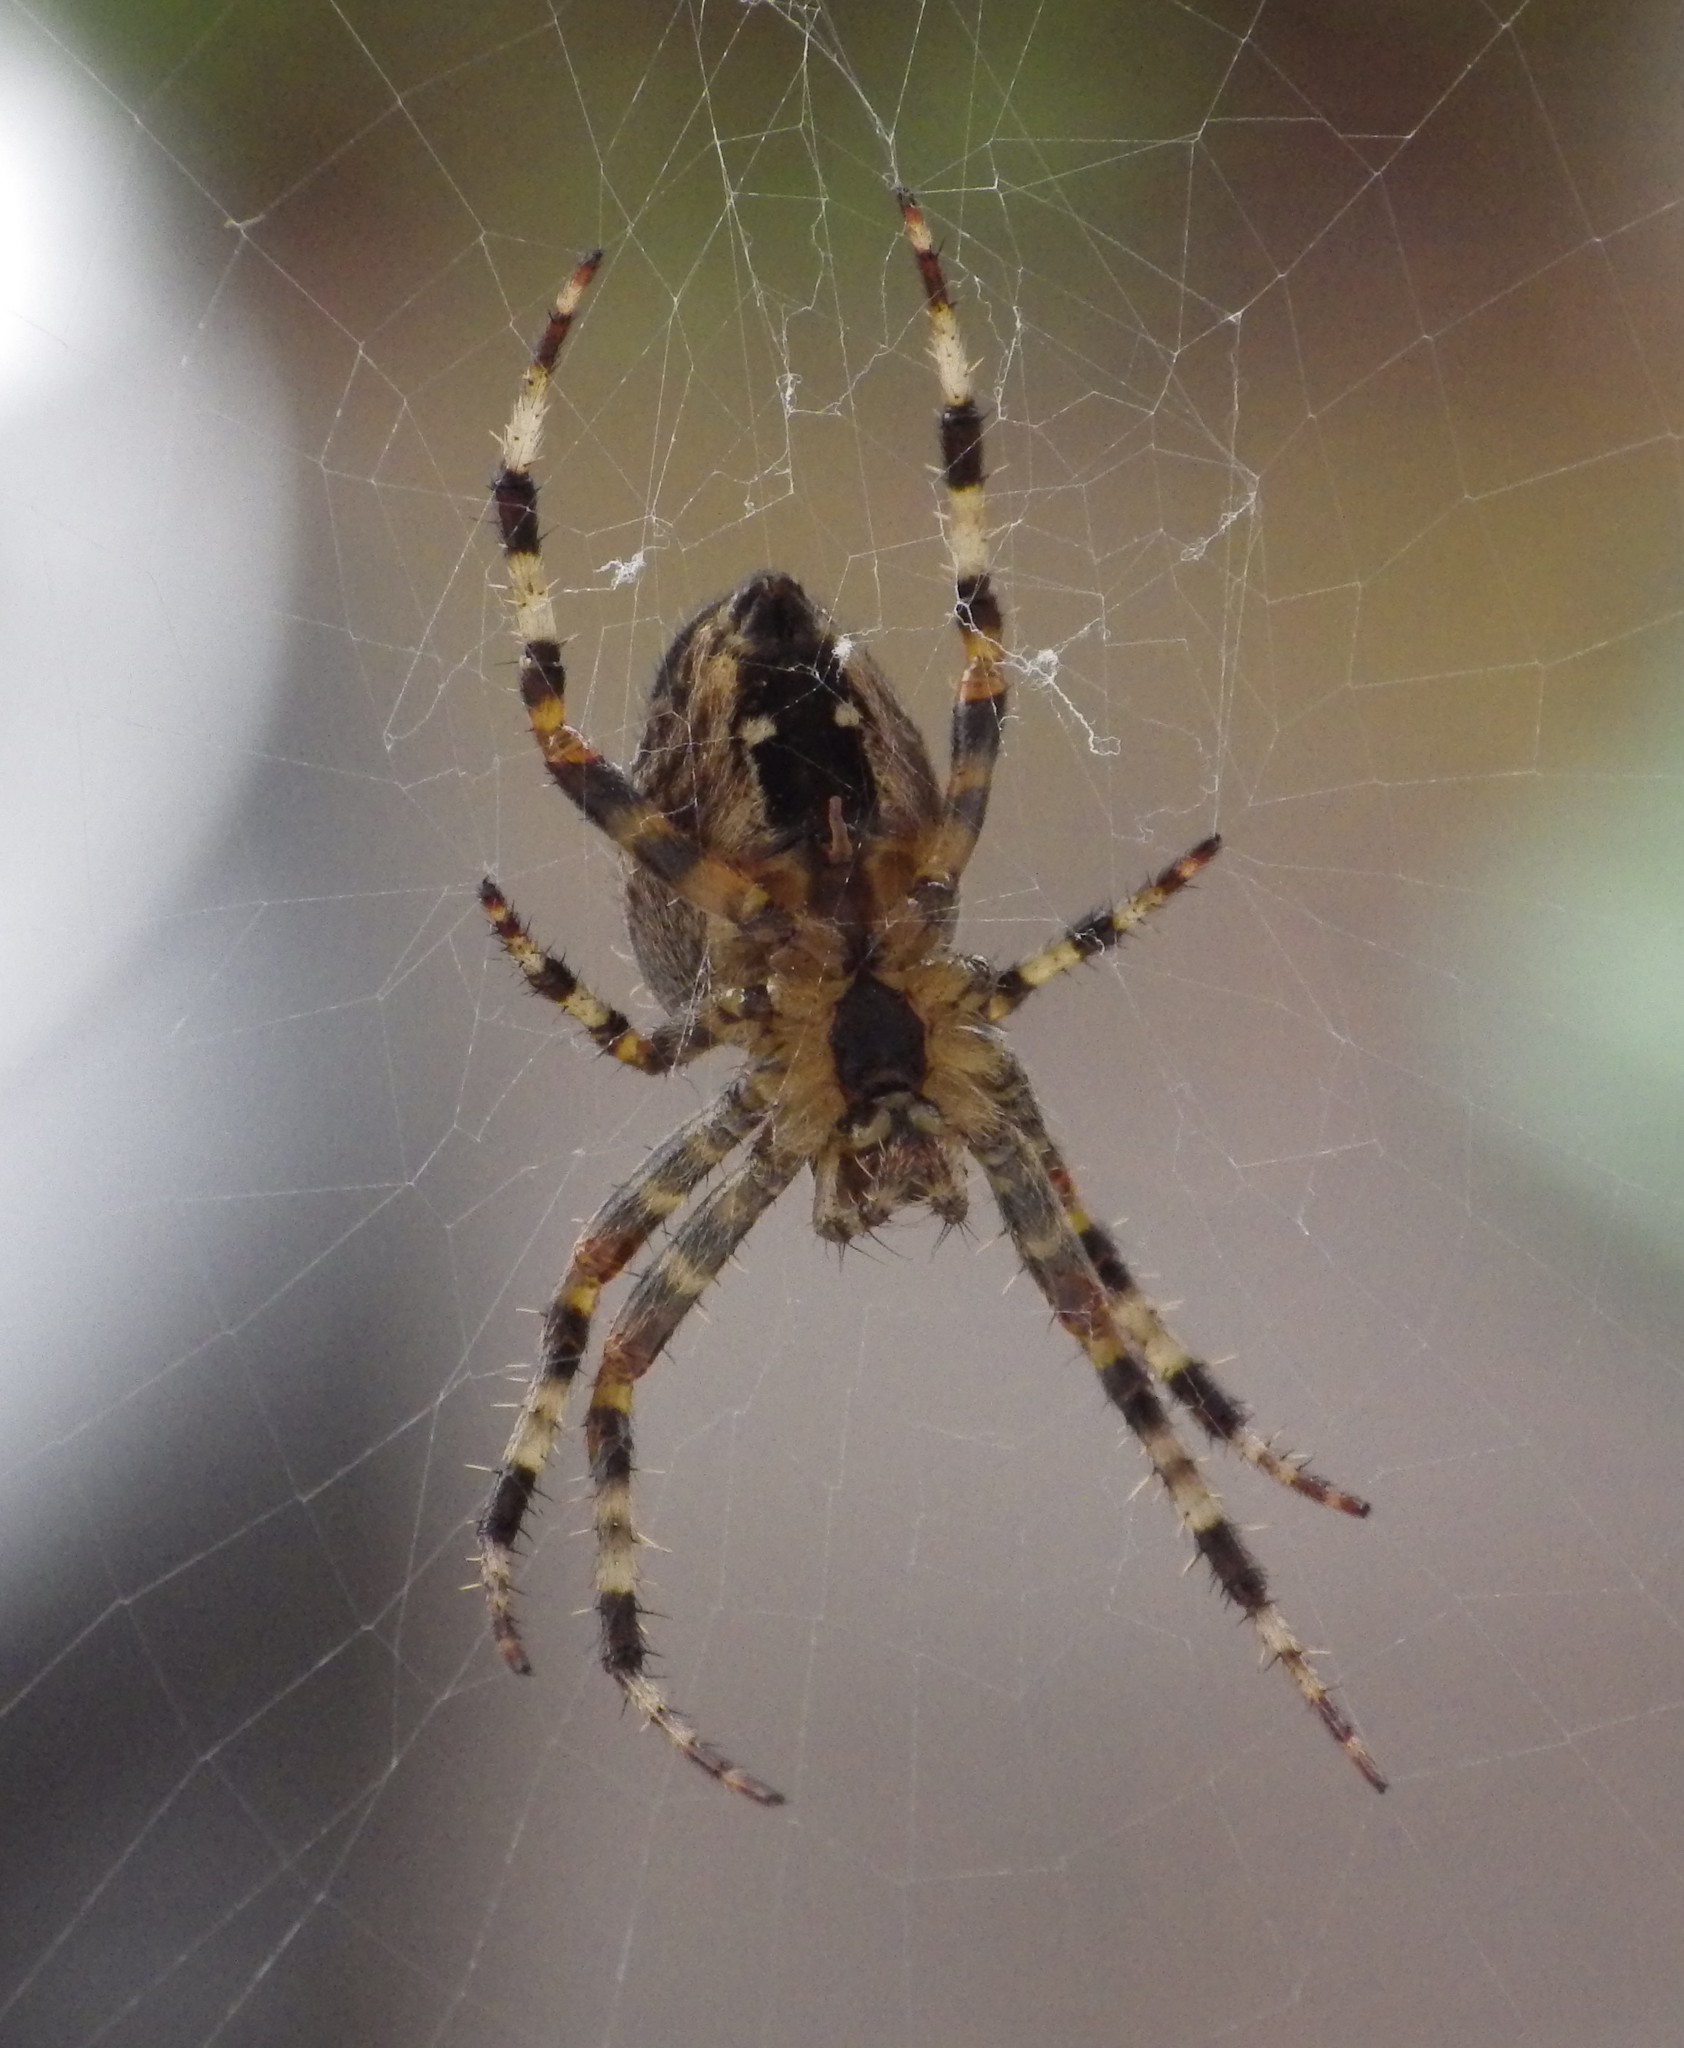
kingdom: Animalia
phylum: Arthropoda
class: Arachnida
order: Araneae
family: Araneidae
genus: Araneus
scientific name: Araneus diadematus
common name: Cross orbweaver
